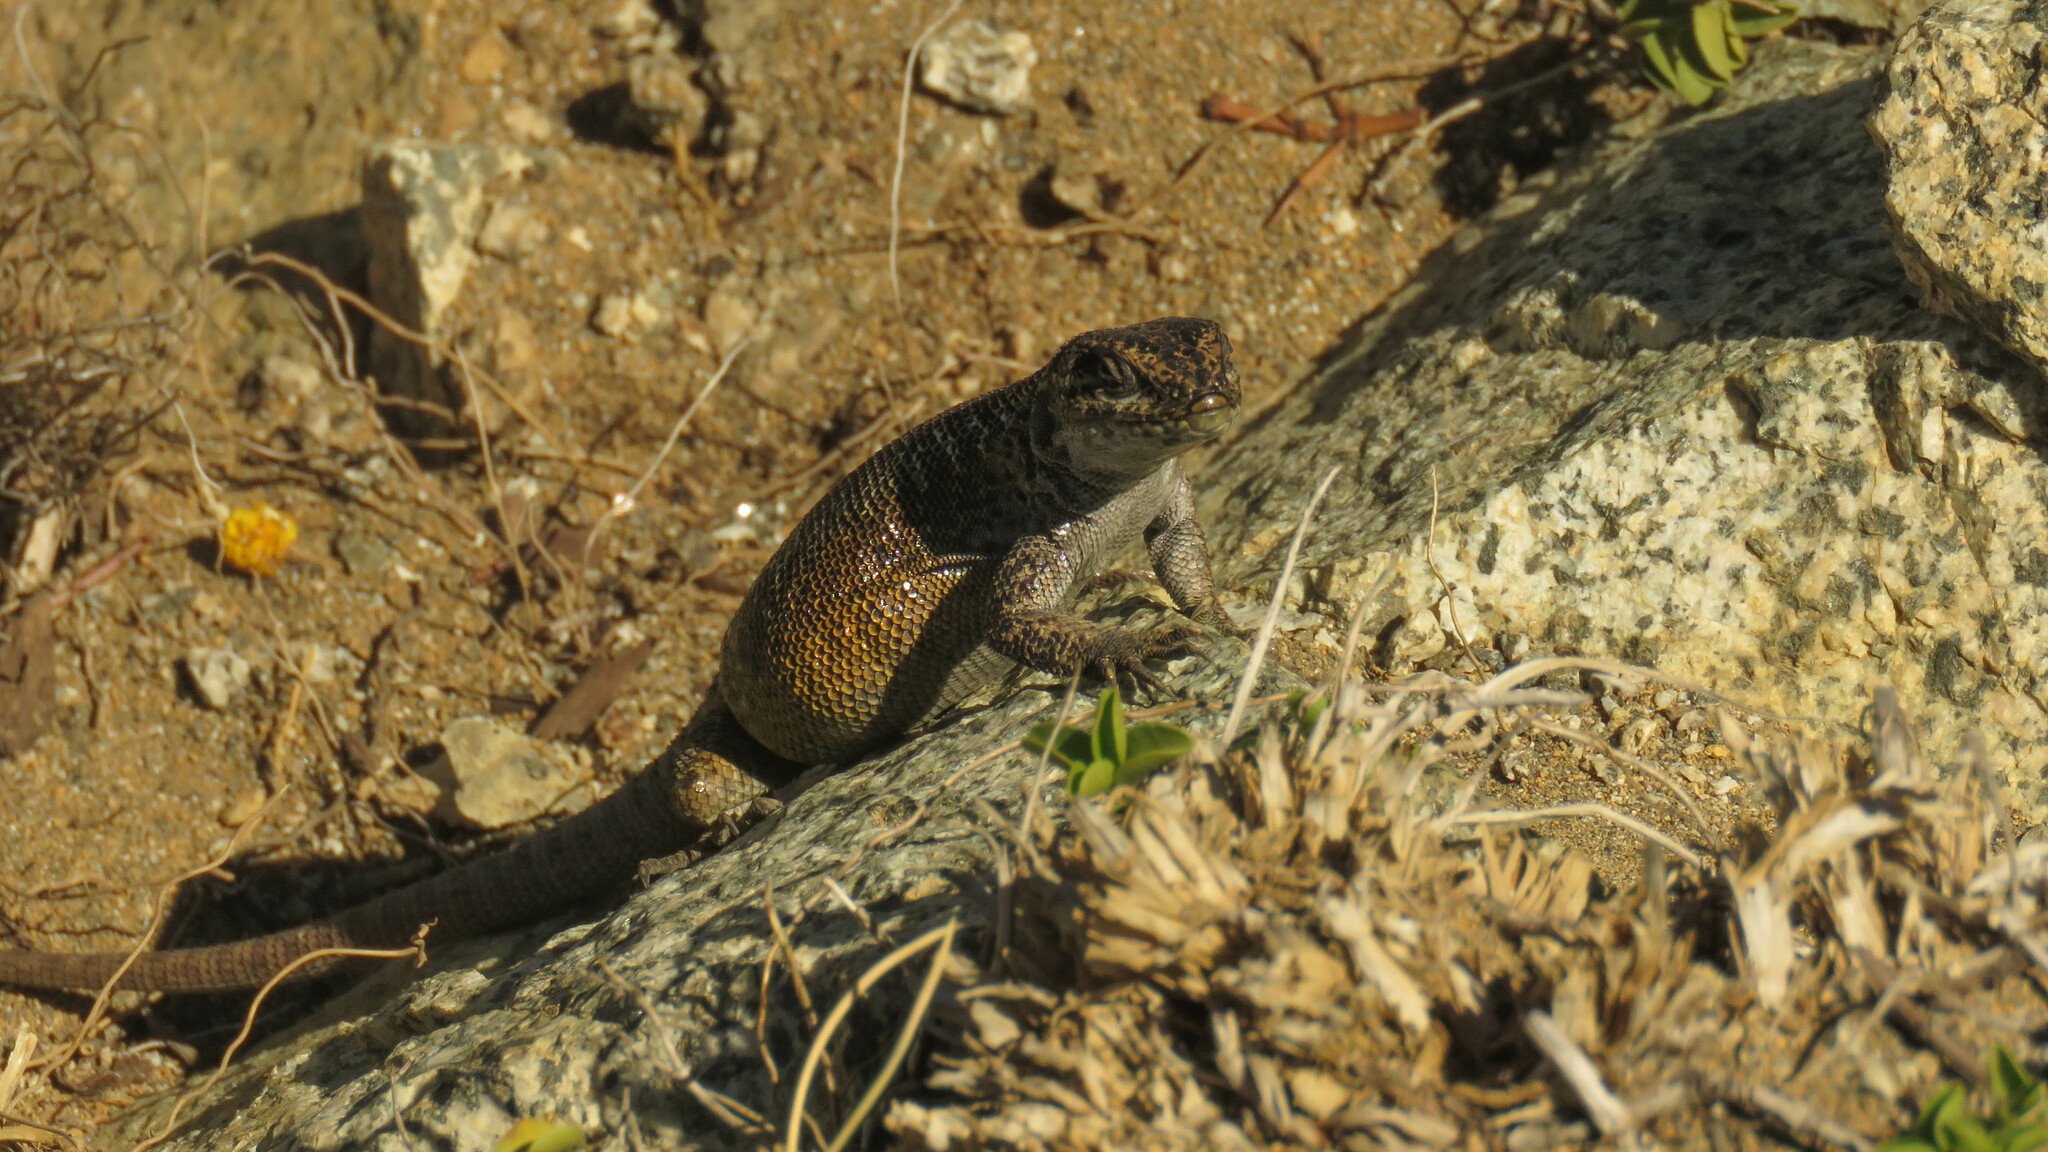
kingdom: Animalia
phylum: Chordata
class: Squamata
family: Liolaemidae
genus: Liolaemus
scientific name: Liolaemus elongatus
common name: Elongate tree iguana
